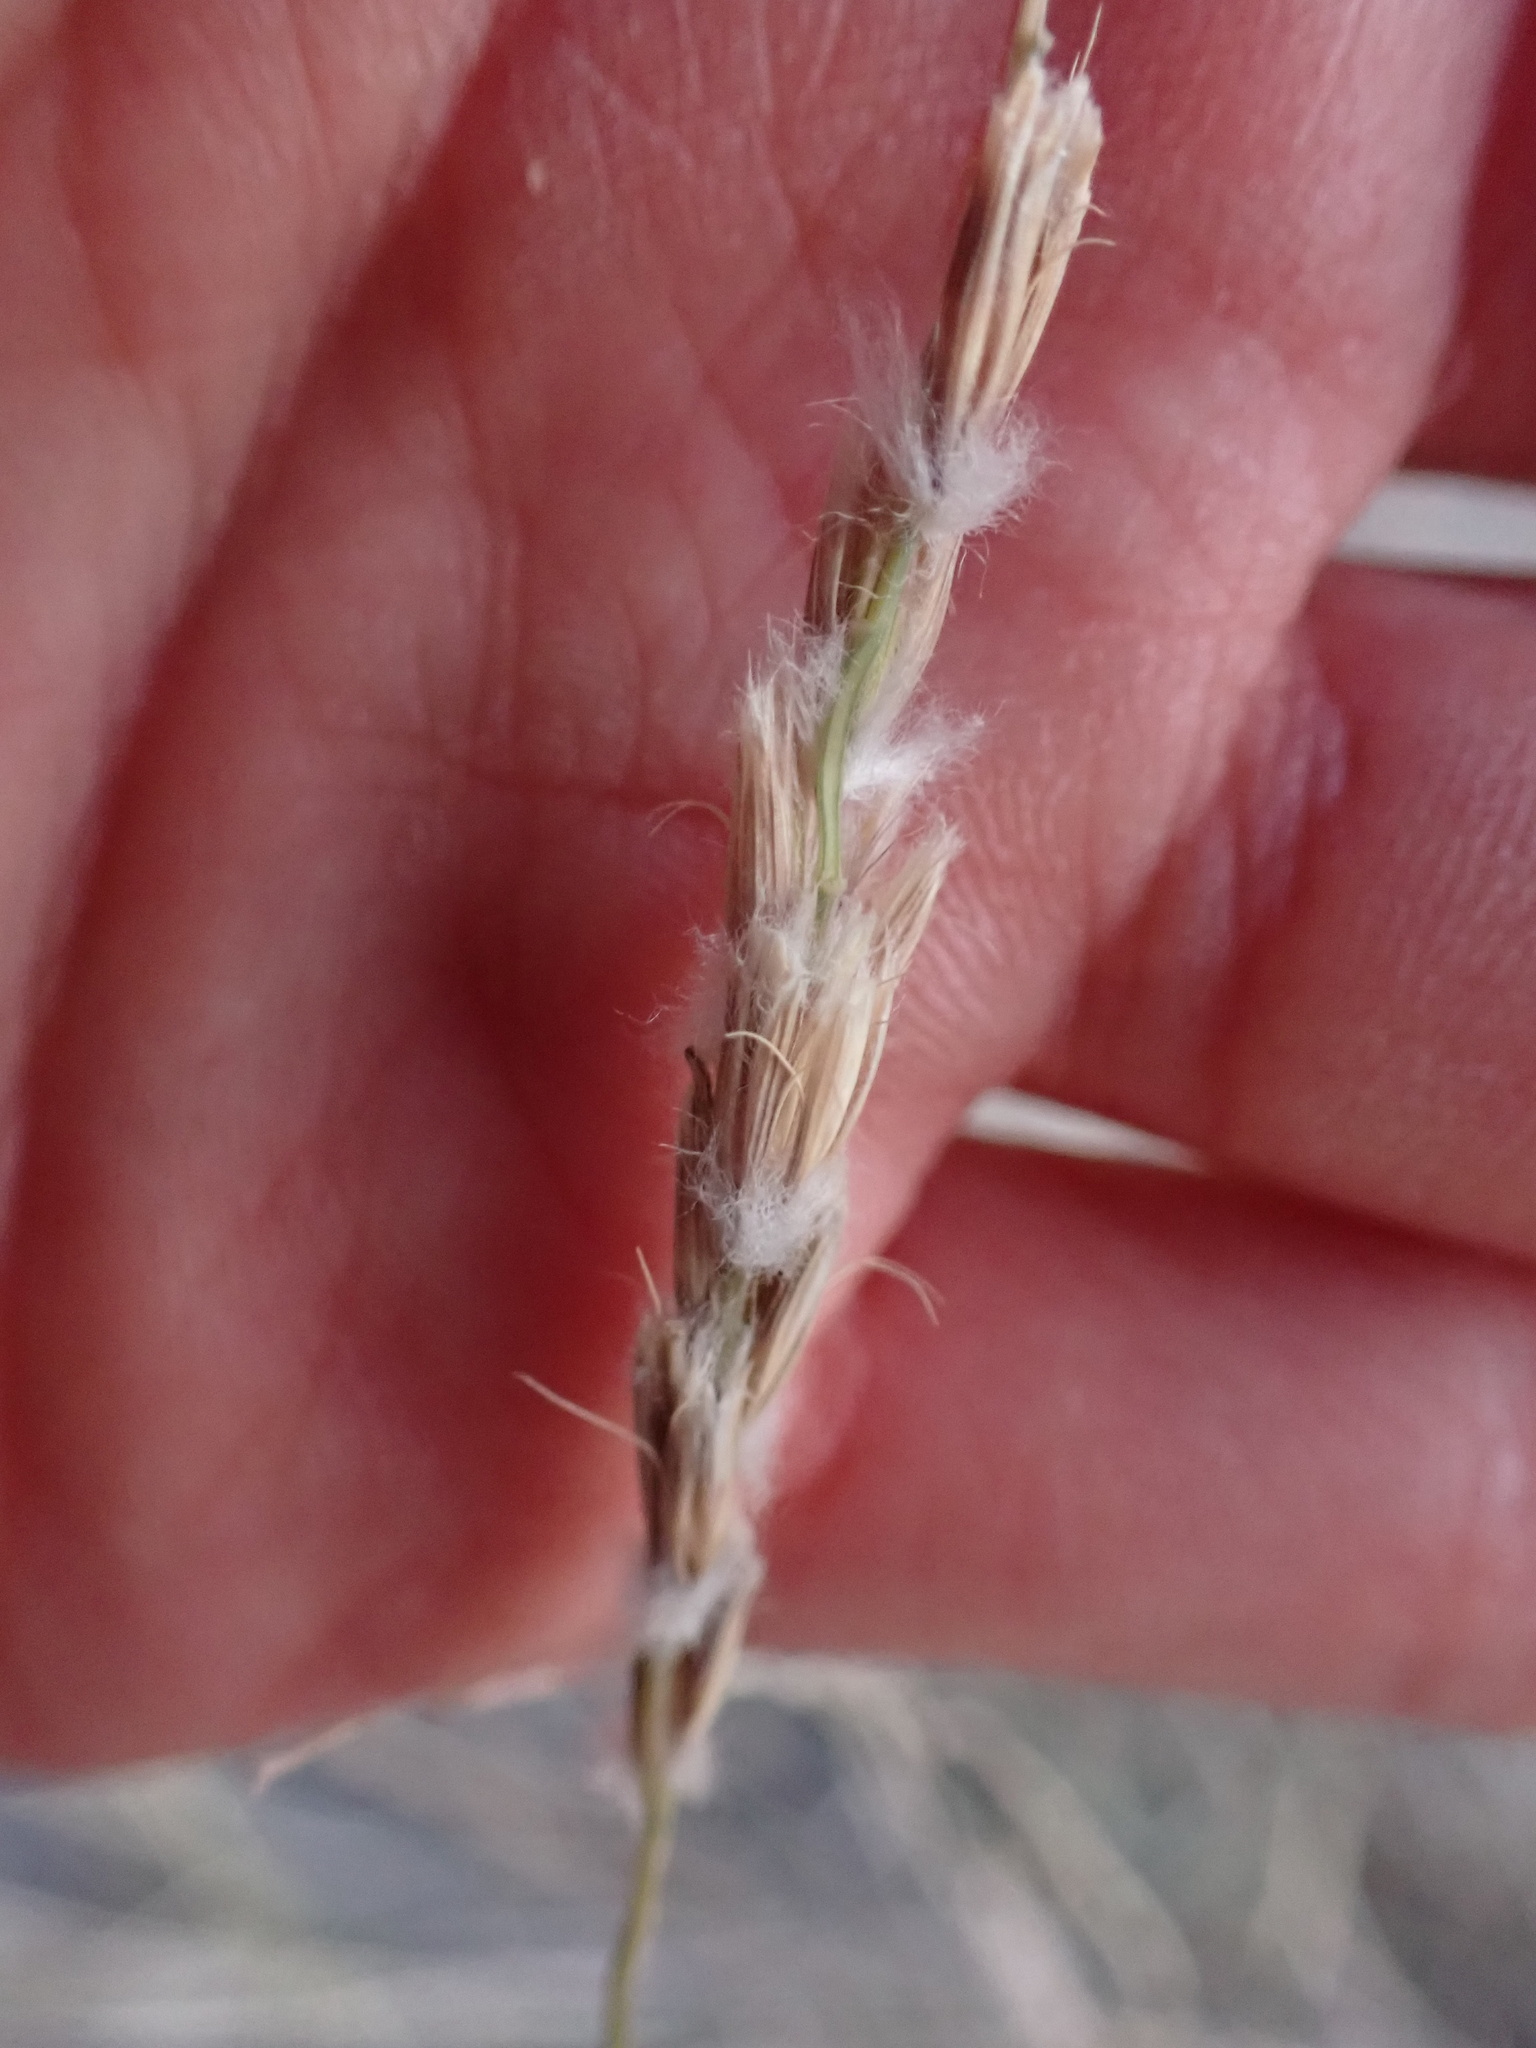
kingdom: Plantae
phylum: Tracheophyta
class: Liliopsida
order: Poales
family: Poaceae
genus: Hilaria
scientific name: Hilaria rigida
